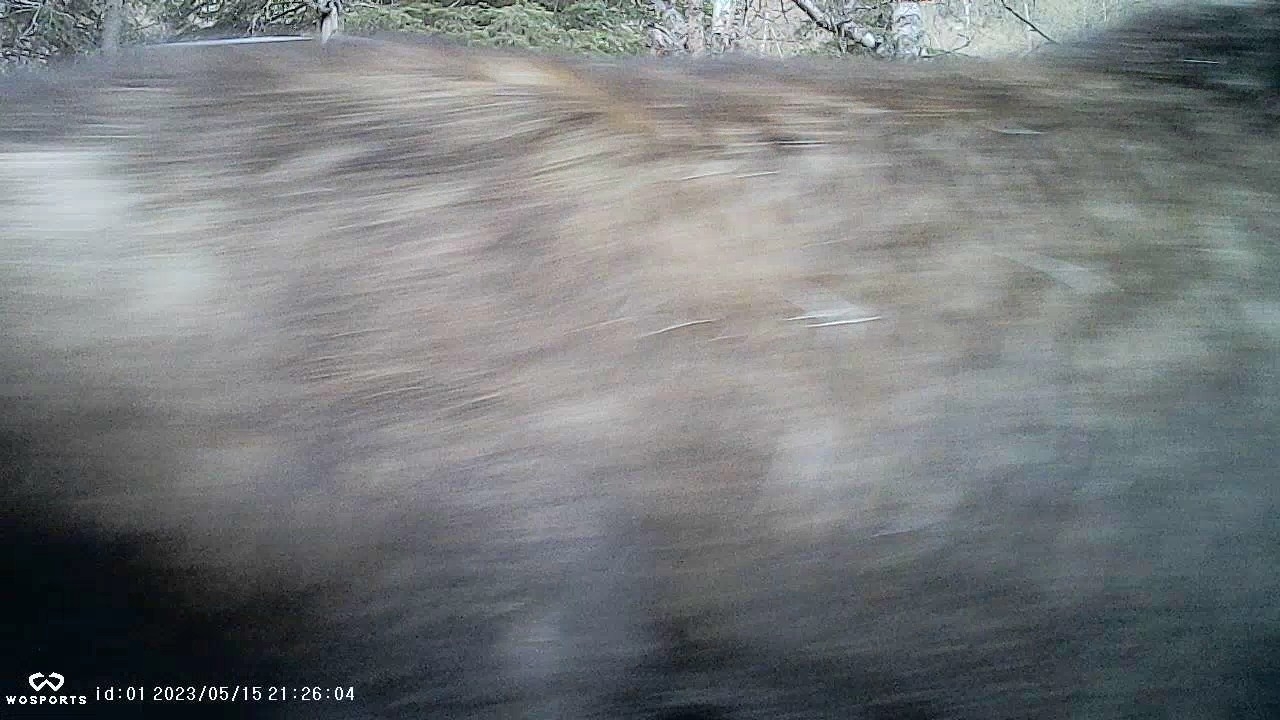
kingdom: Animalia
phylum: Chordata
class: Mammalia
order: Artiodactyla
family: Cervidae
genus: Alces
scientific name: Alces alces
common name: Moose
